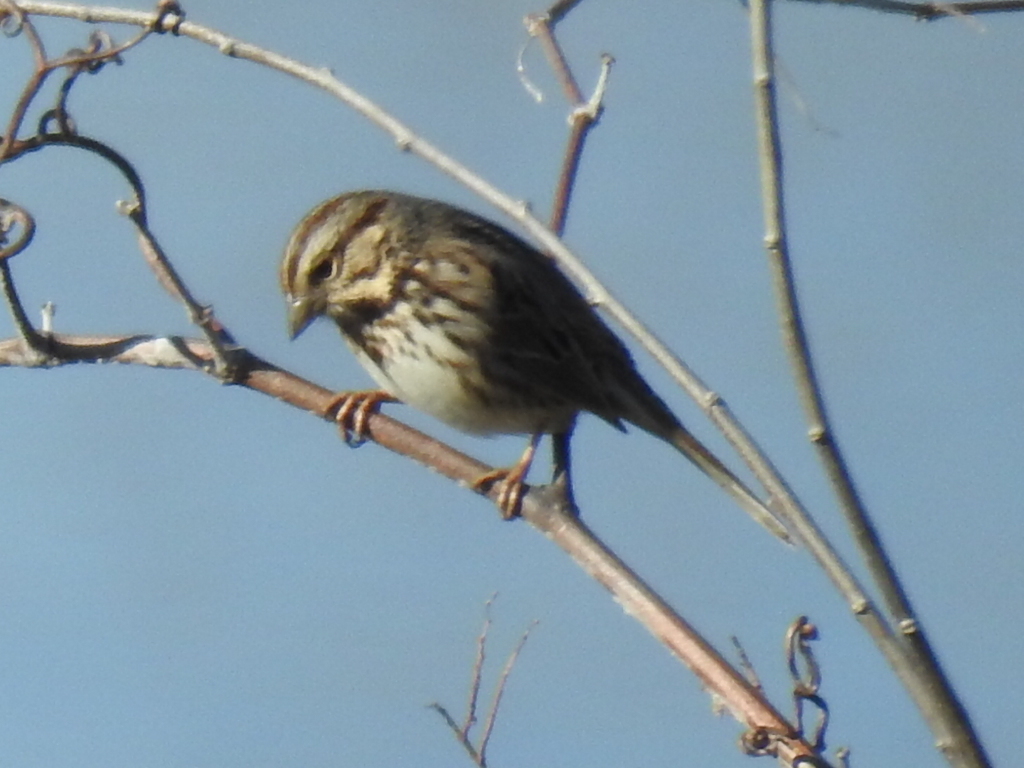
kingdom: Animalia
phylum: Chordata
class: Aves
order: Passeriformes
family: Passerellidae
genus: Melospiza
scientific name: Melospiza melodia
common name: Song sparrow
